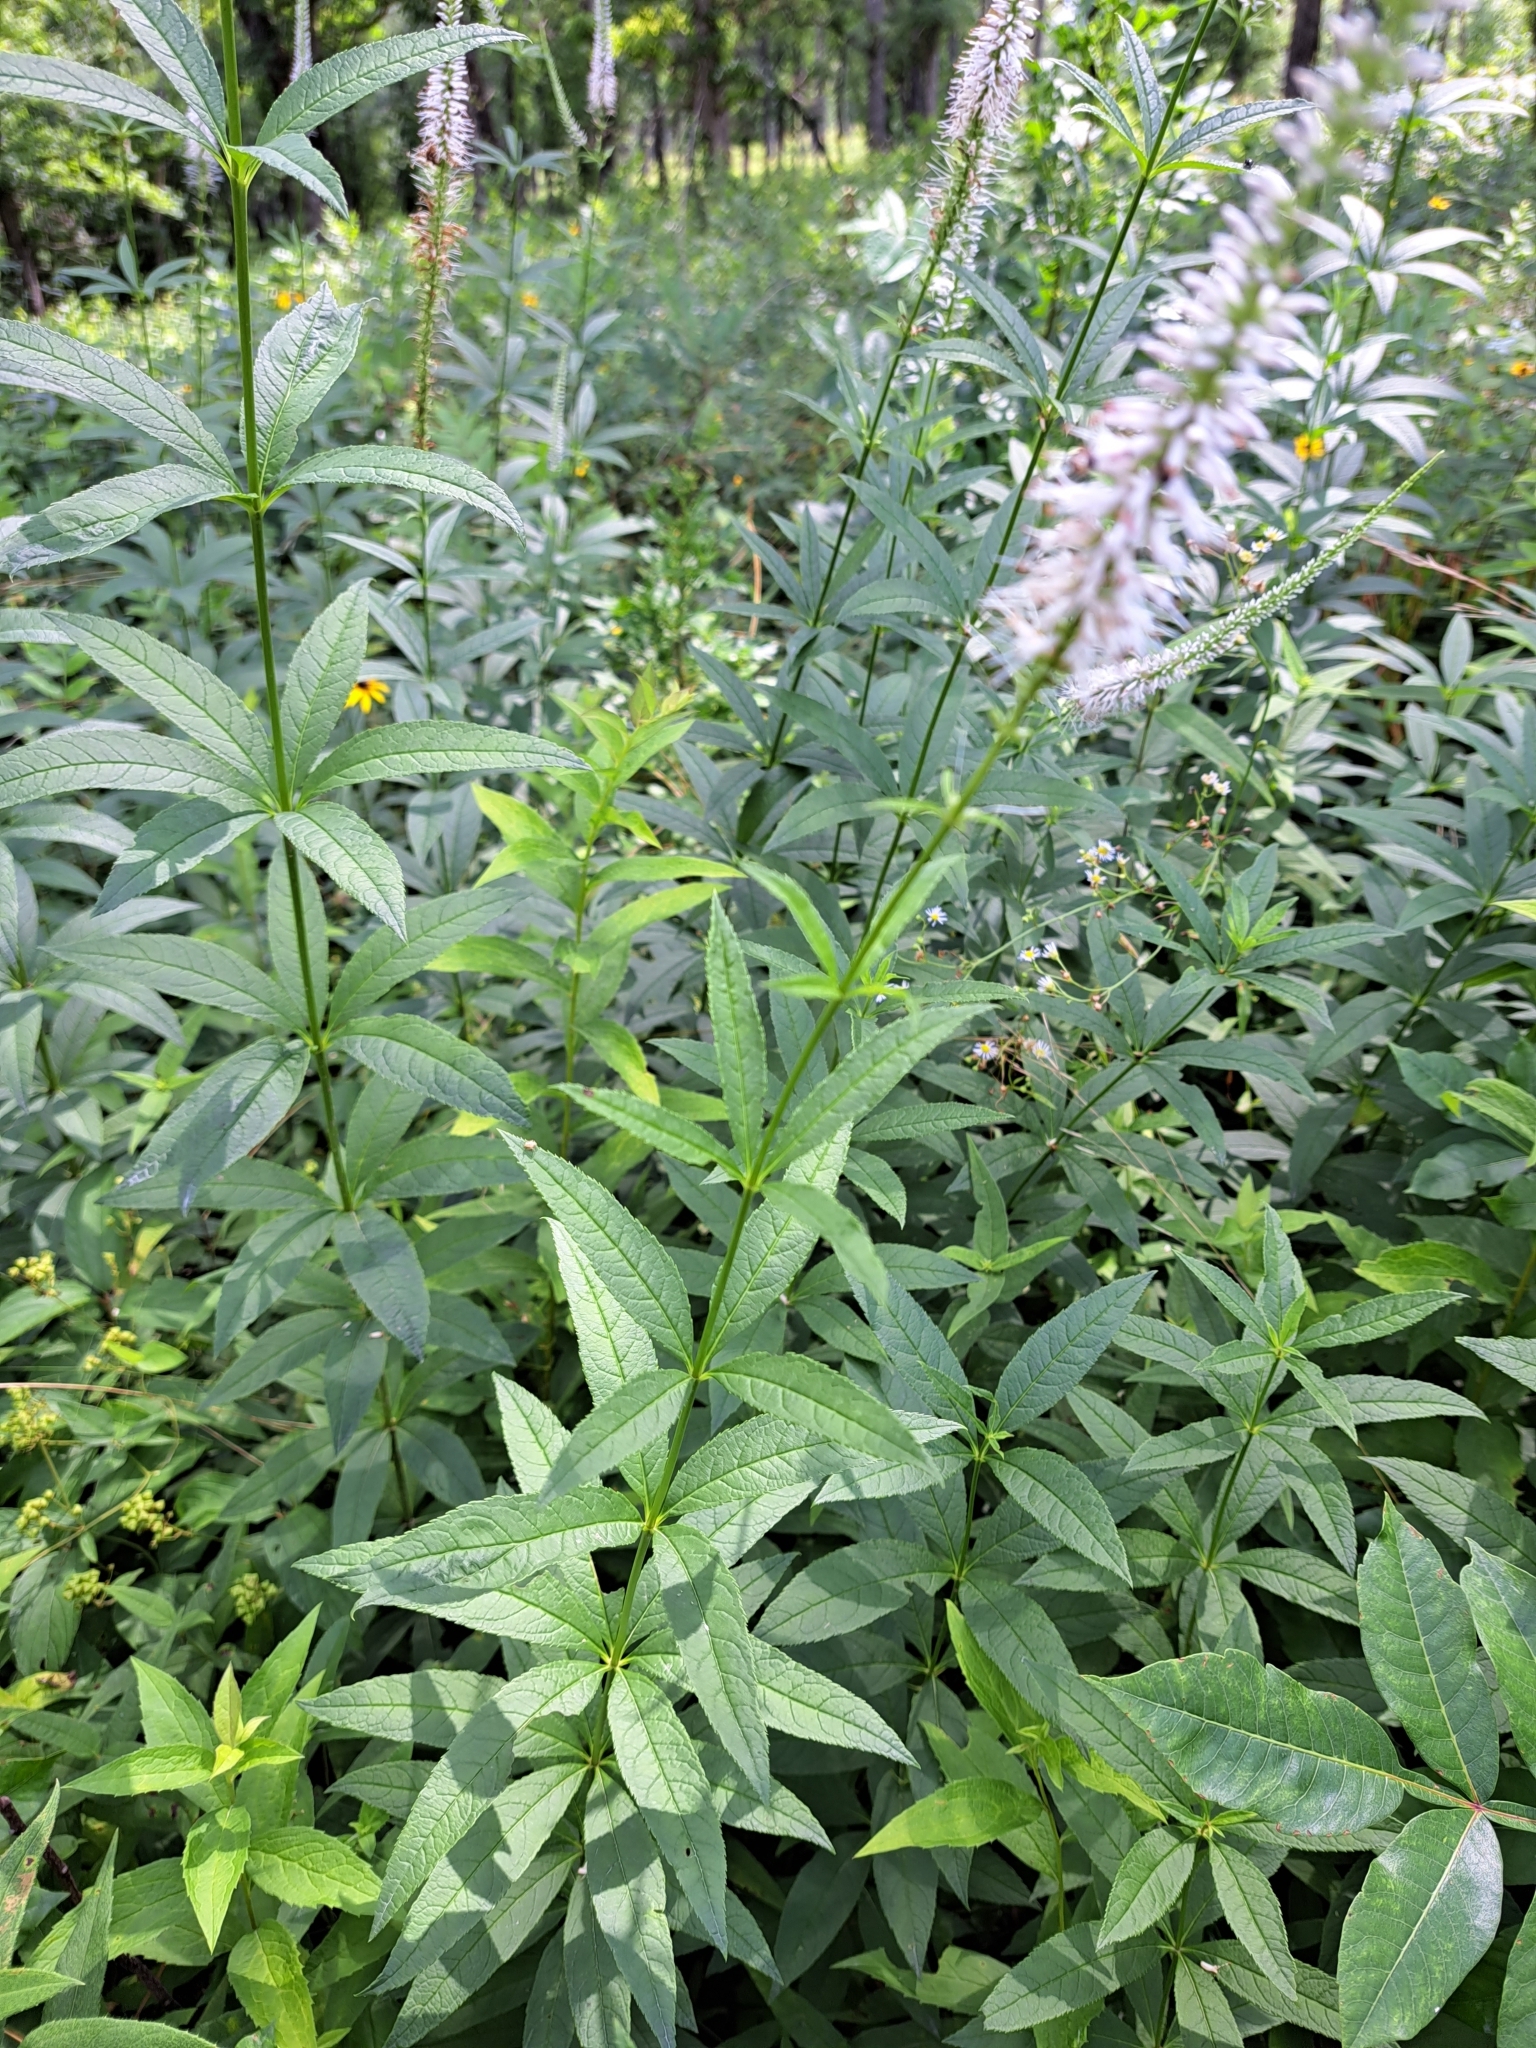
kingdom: Plantae
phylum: Tracheophyta
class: Magnoliopsida
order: Lamiales
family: Plantaginaceae
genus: Veronicastrum
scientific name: Veronicastrum virginicum
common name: Blackroot
